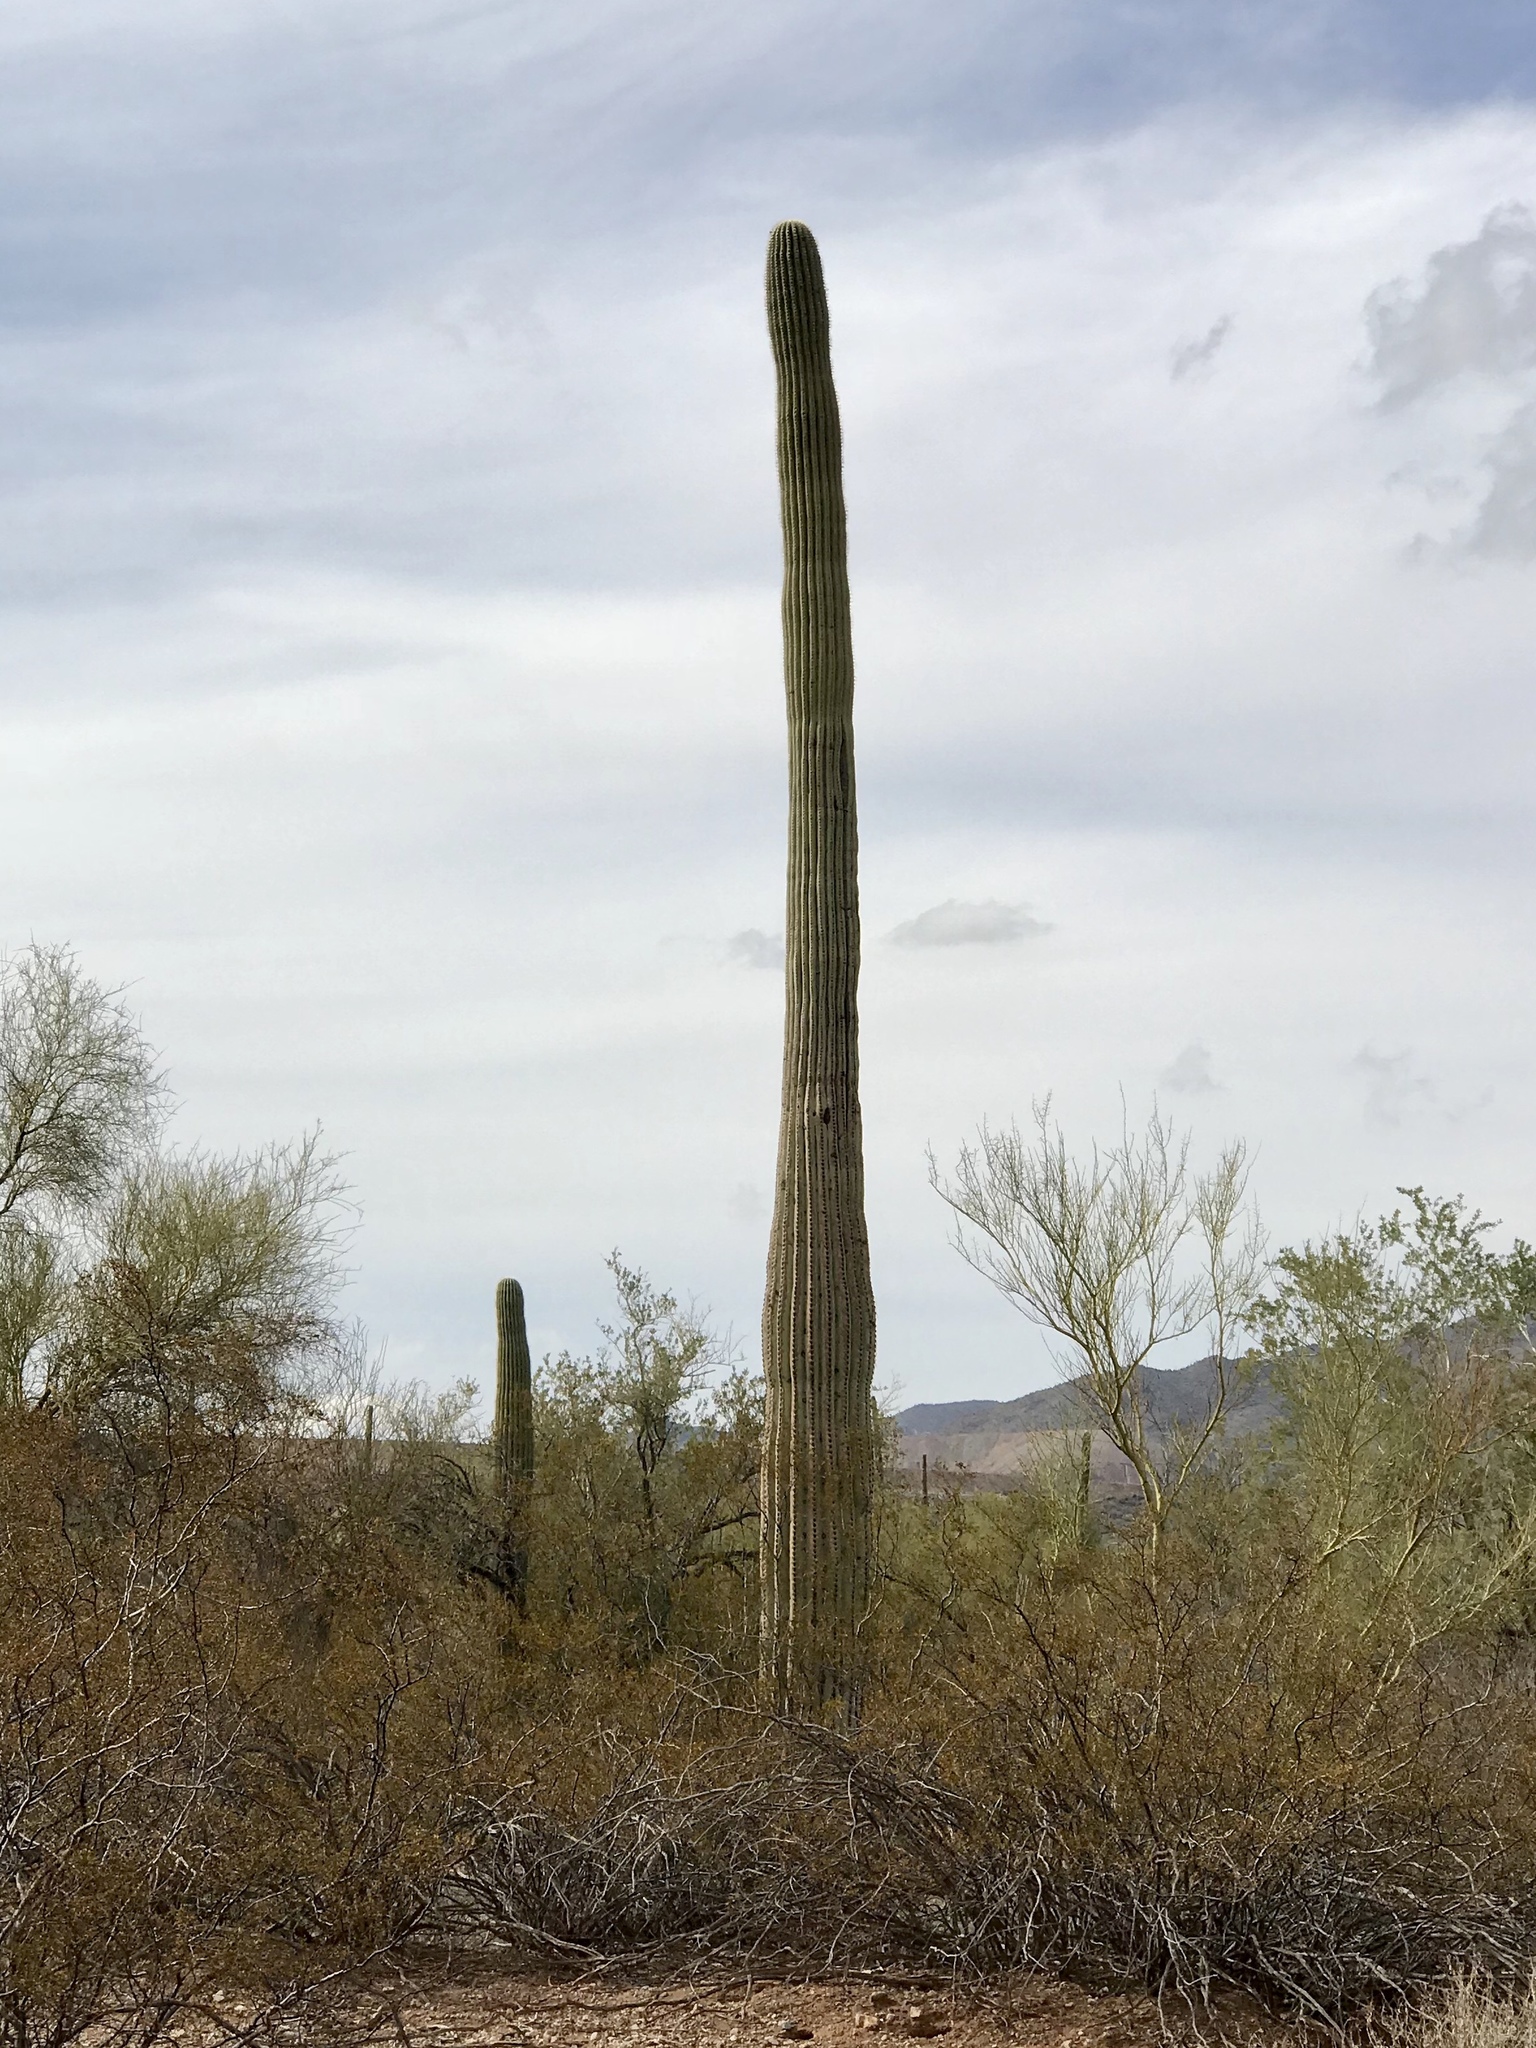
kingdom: Plantae
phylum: Tracheophyta
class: Magnoliopsida
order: Caryophyllales
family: Cactaceae
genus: Carnegiea
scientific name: Carnegiea gigantea
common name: Saguaro
